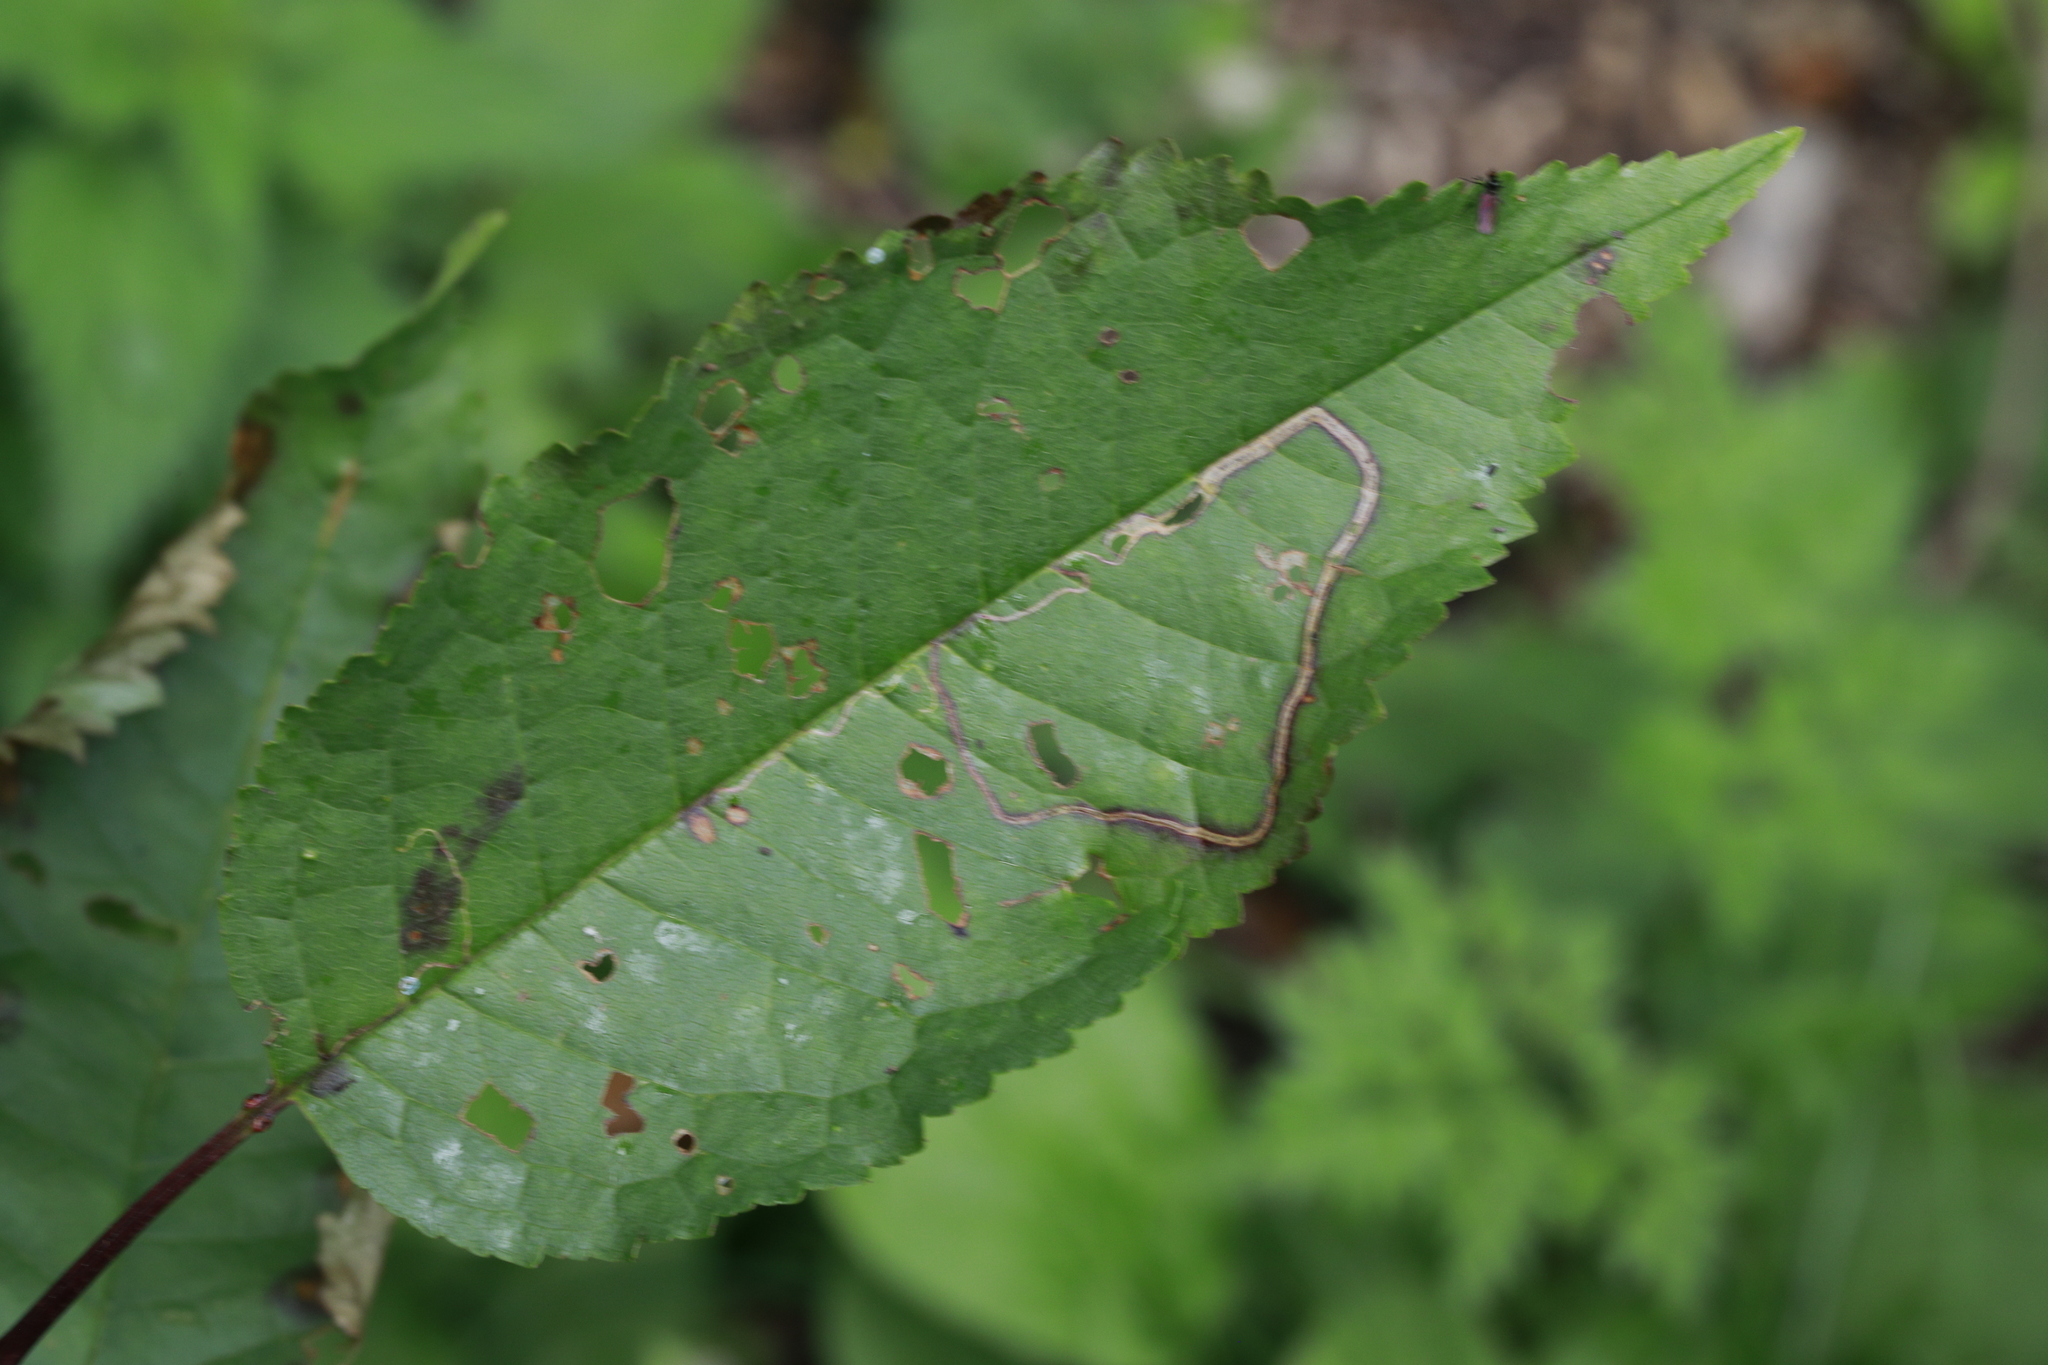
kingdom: Animalia
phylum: Arthropoda
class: Insecta
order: Lepidoptera
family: Lyonetiidae
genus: Lyonetia
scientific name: Lyonetia clerkella
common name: Apple leaf miner
